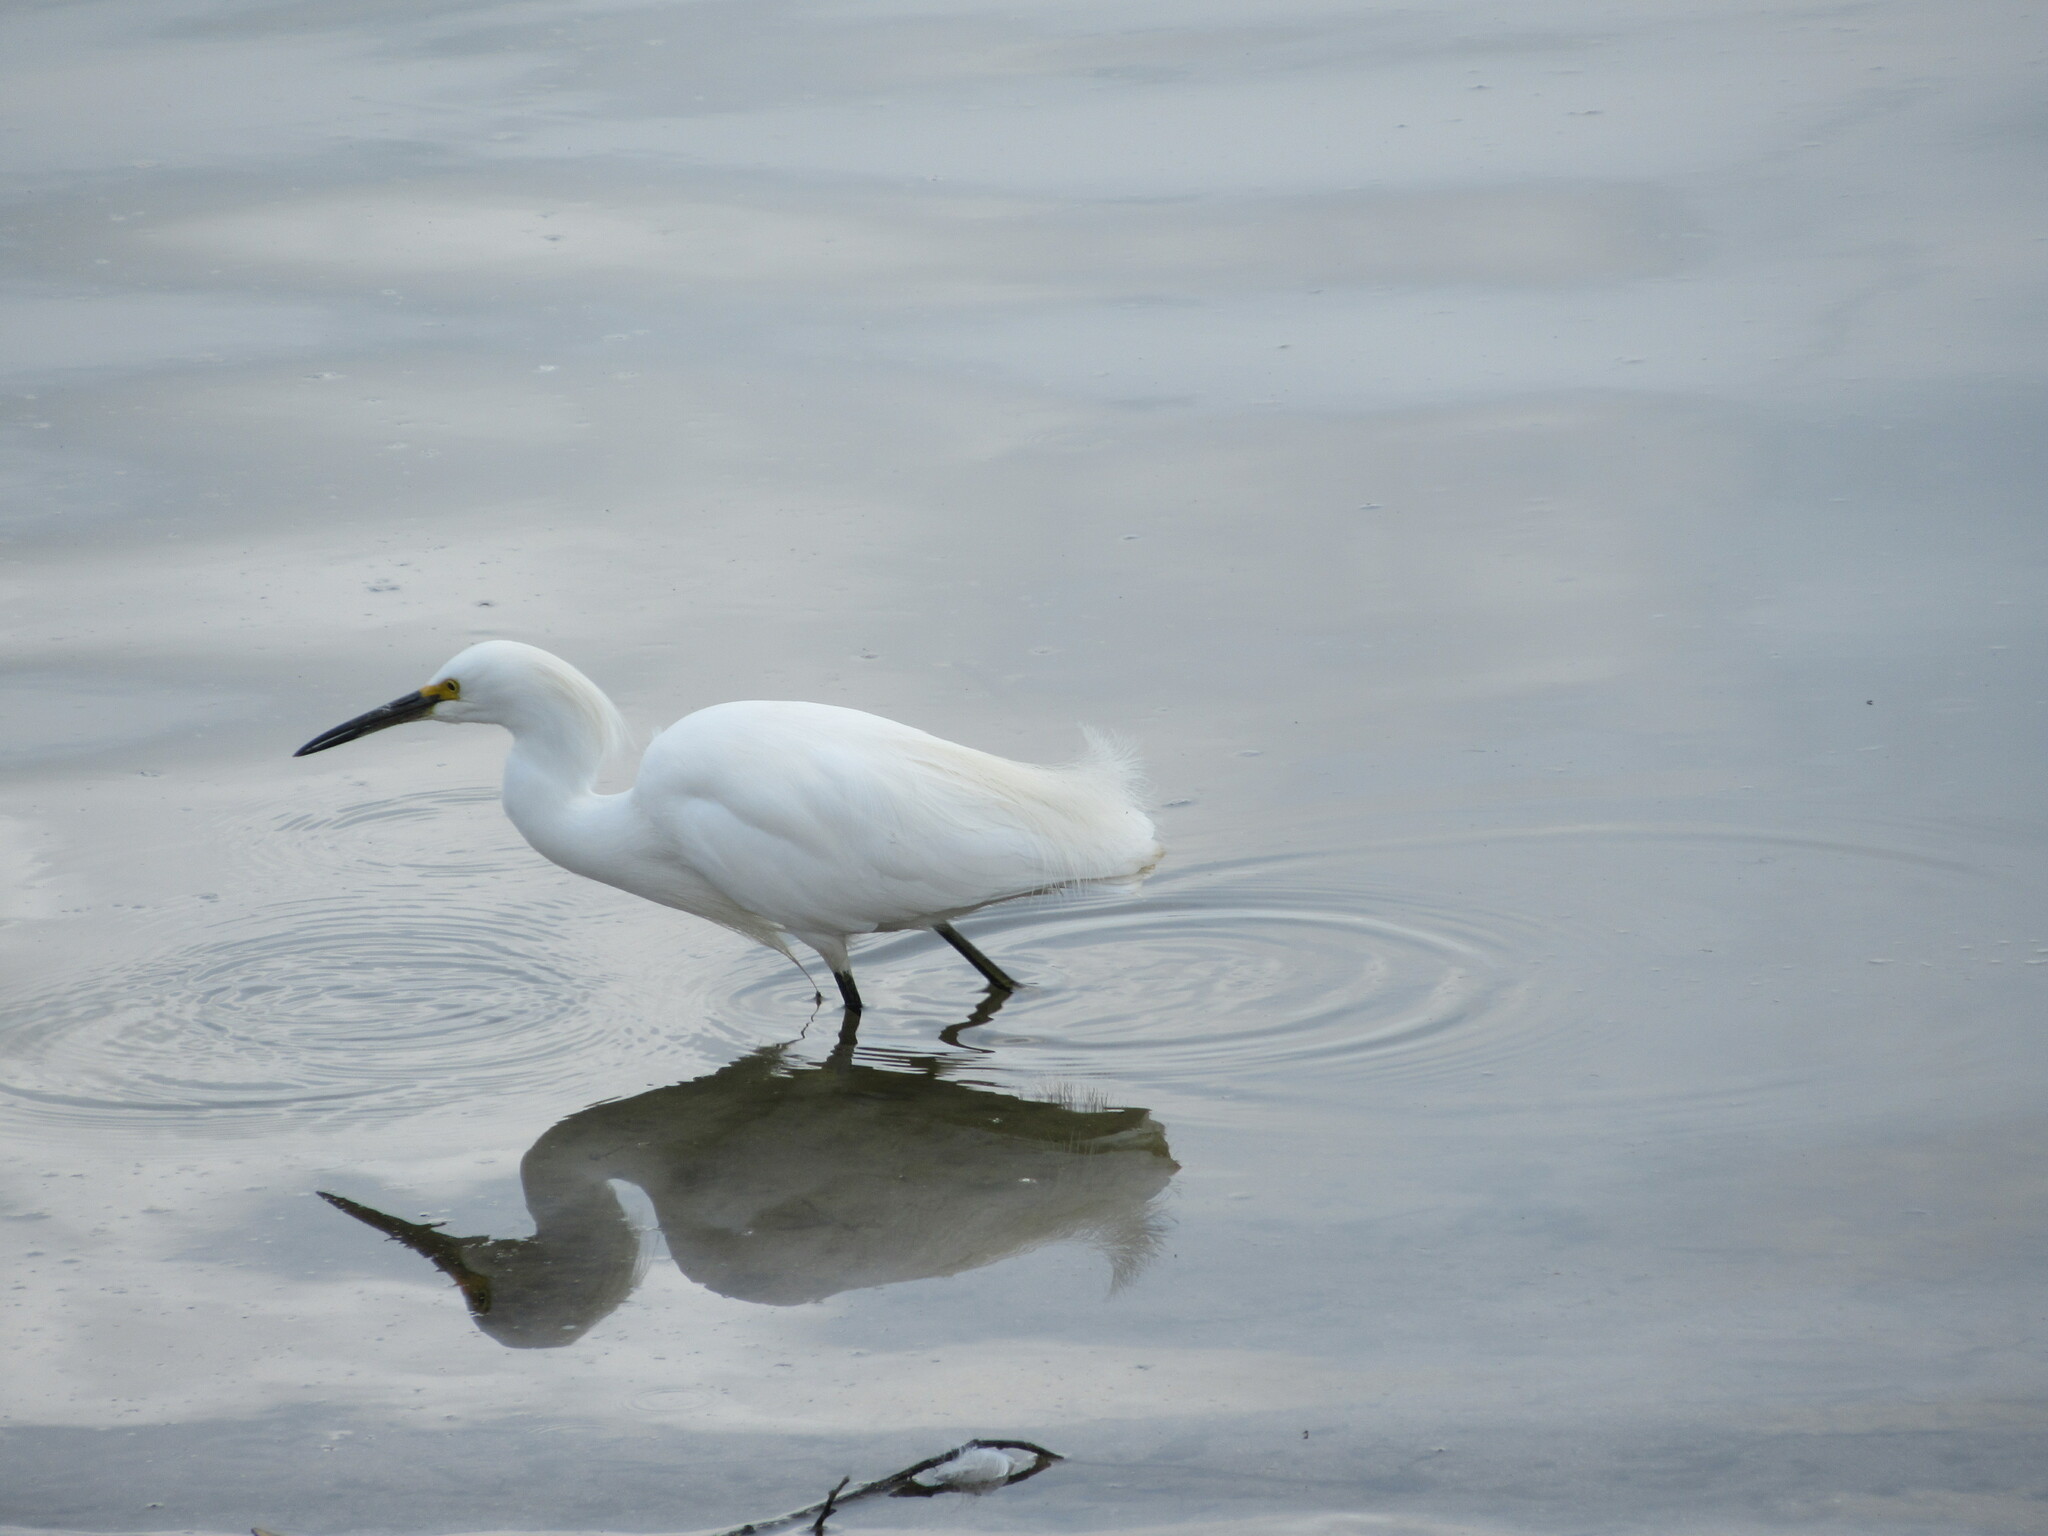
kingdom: Animalia
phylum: Chordata
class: Aves
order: Pelecaniformes
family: Ardeidae
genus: Egretta
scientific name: Egretta thula
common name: Snowy egret
